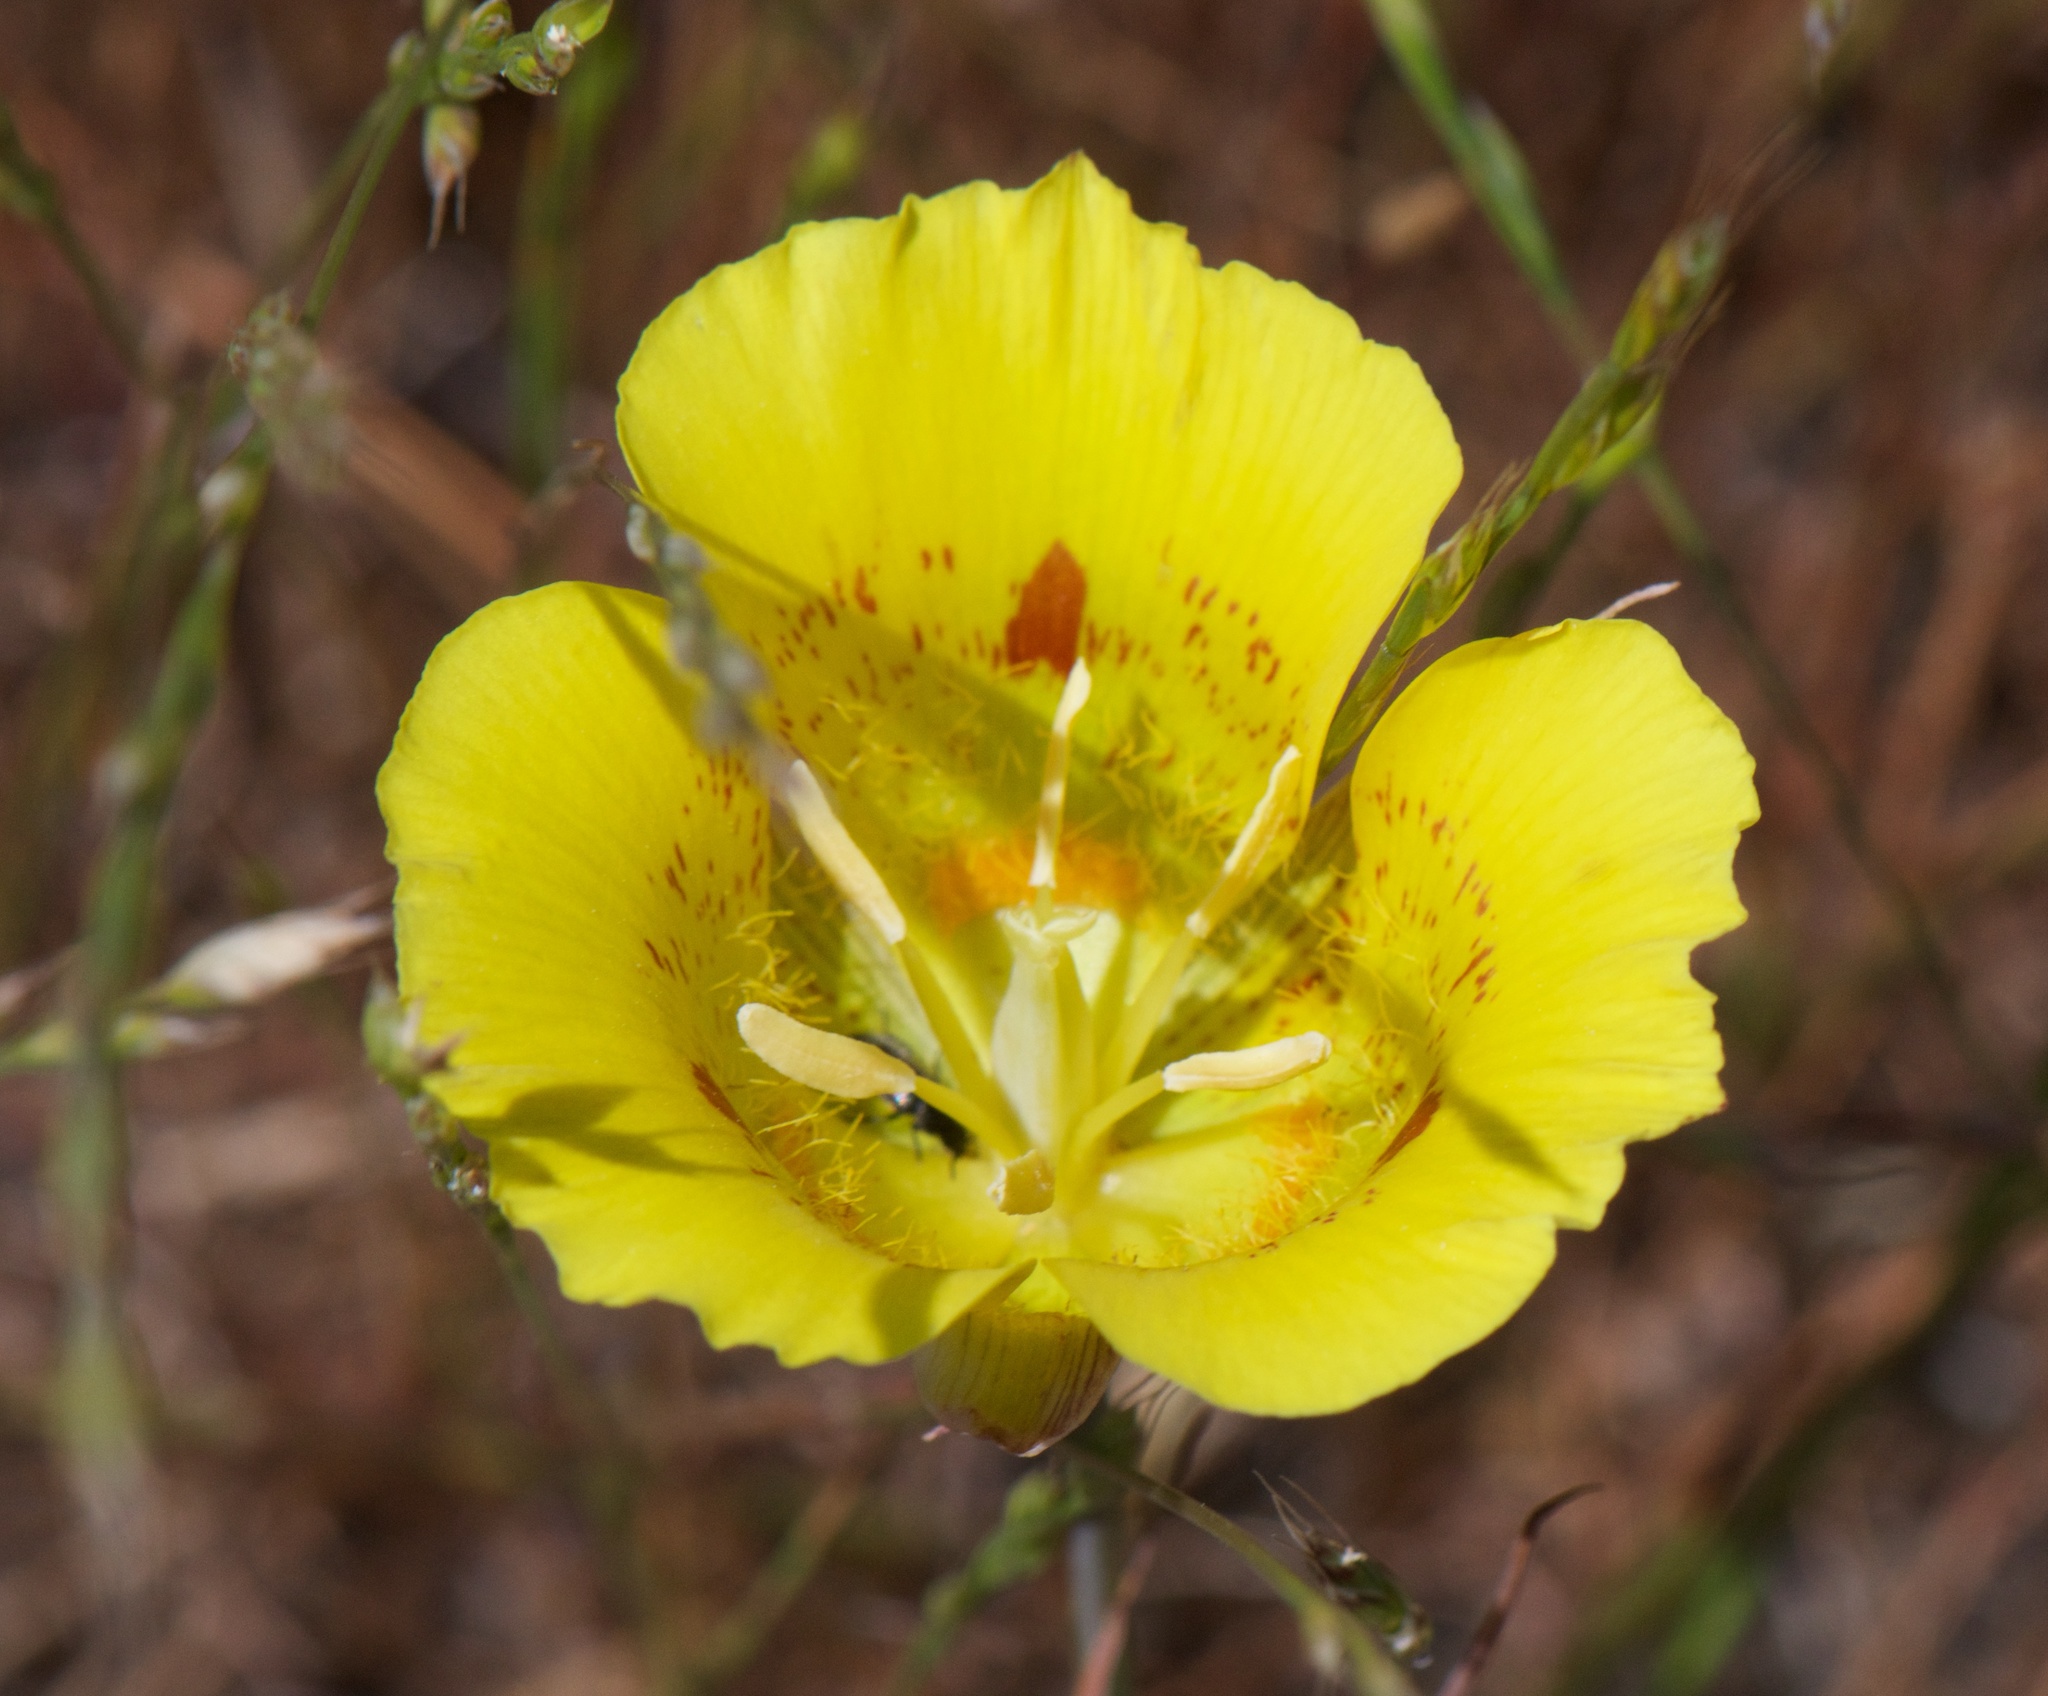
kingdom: Plantae
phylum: Tracheophyta
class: Liliopsida
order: Liliales
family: Liliaceae
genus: Calochortus
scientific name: Calochortus luteus
